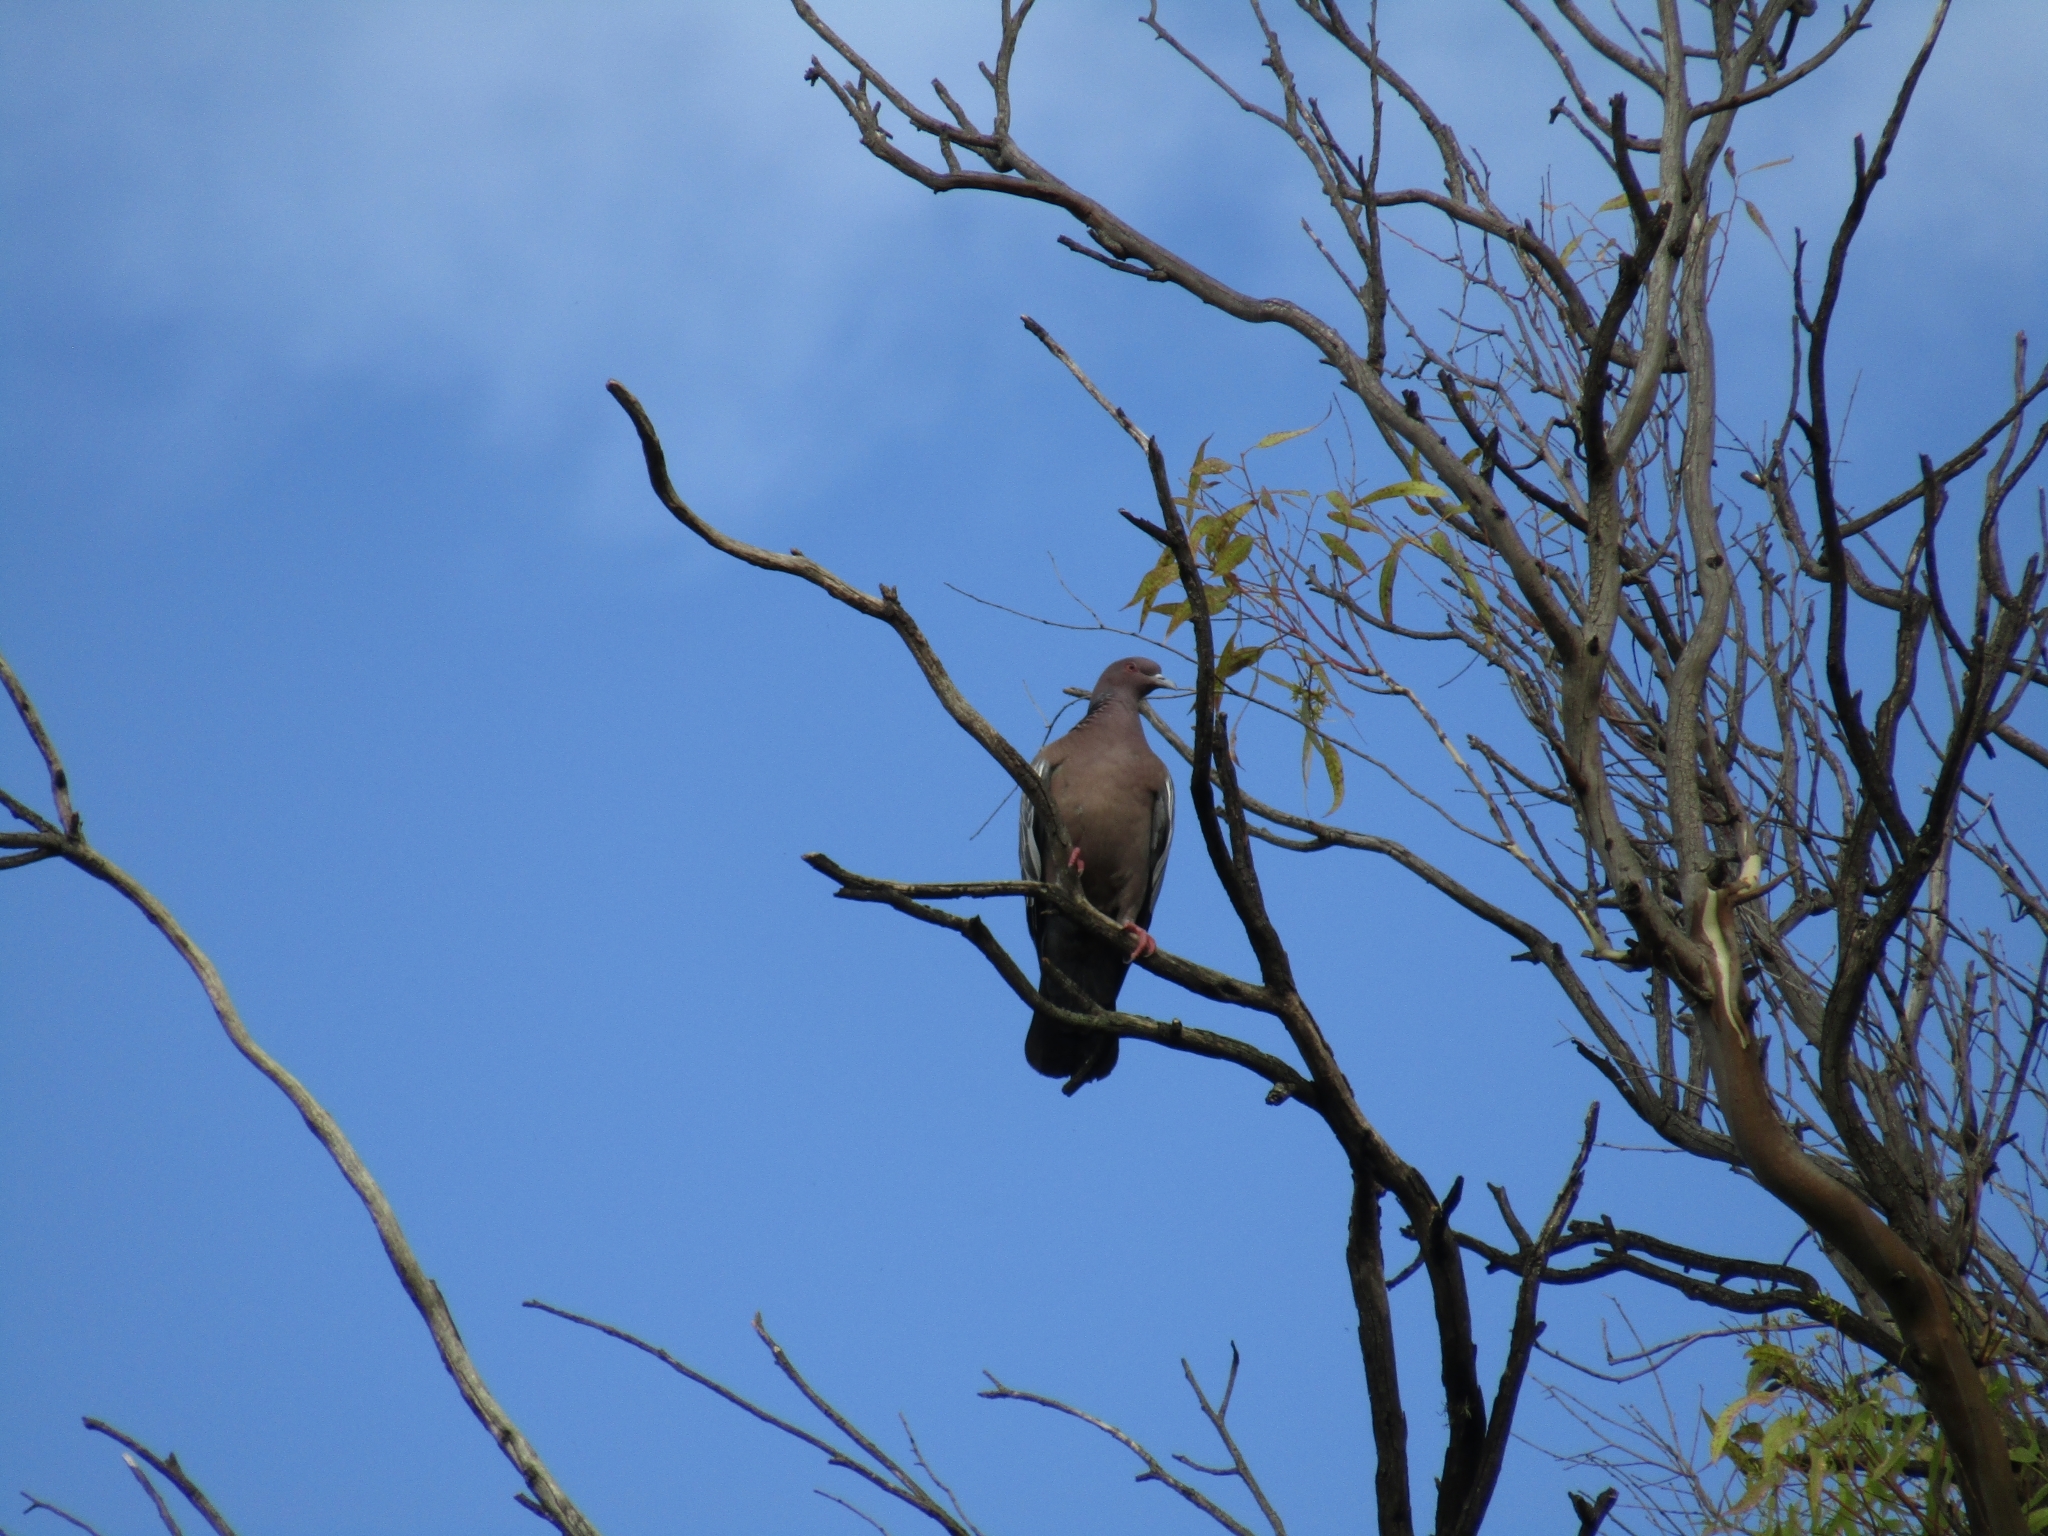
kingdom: Animalia
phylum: Chordata
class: Aves
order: Columbiformes
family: Columbidae
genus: Patagioenas
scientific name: Patagioenas picazuro
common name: Picazuro pigeon
